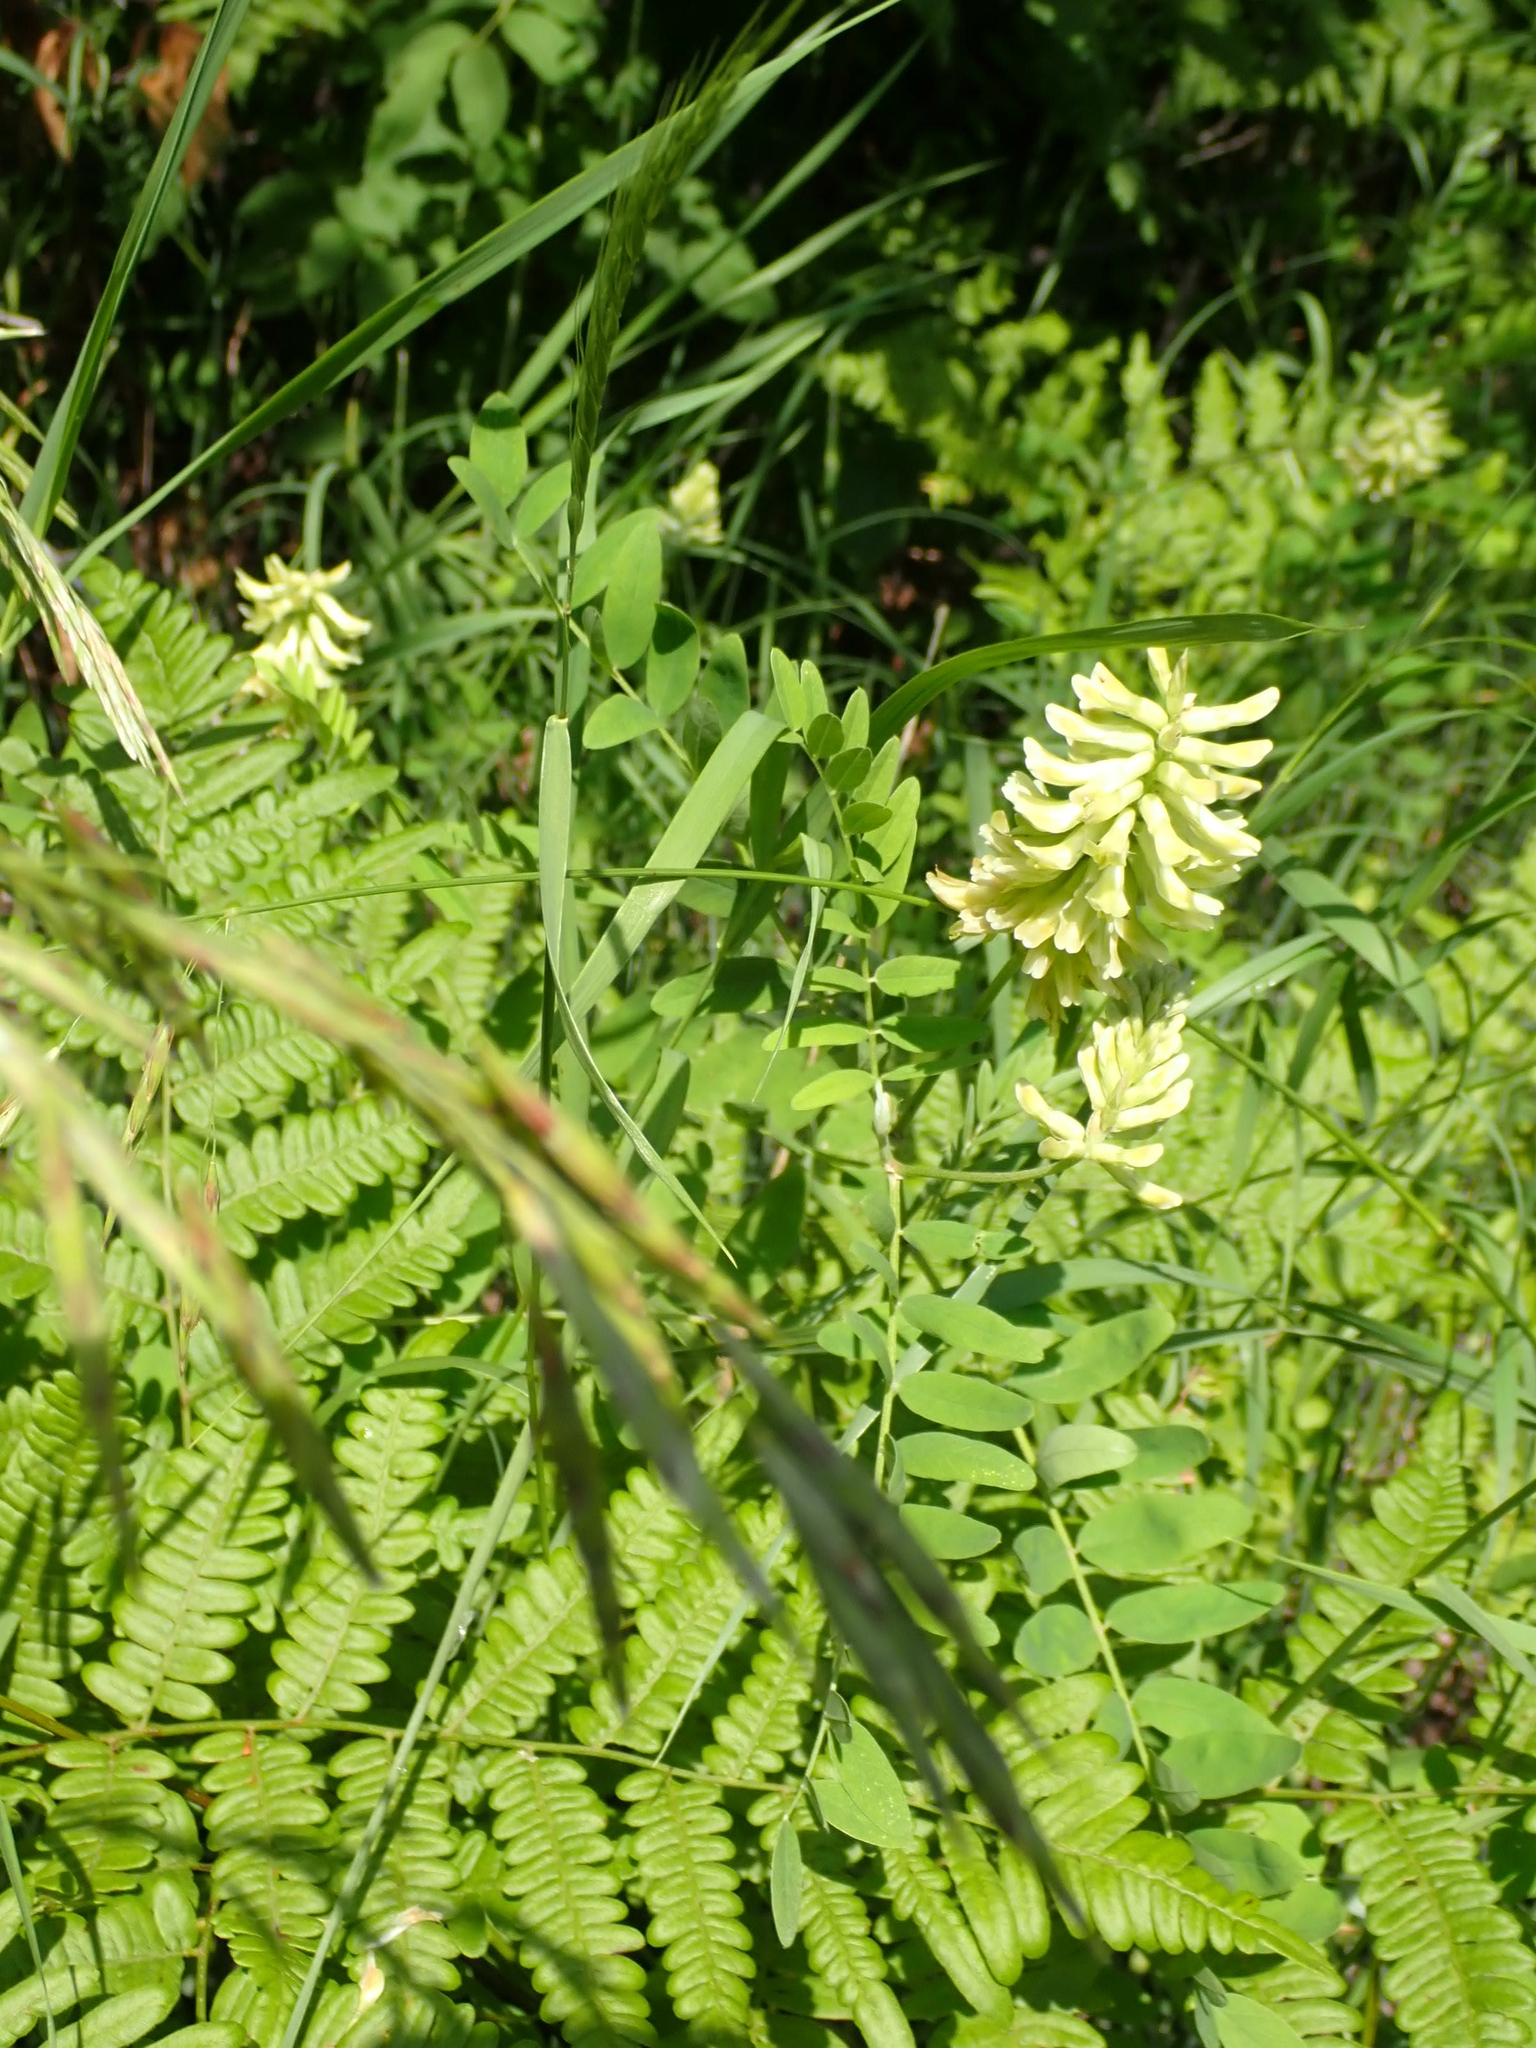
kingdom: Plantae
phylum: Tracheophyta
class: Magnoliopsida
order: Fabales
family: Fabaceae
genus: Astragalus
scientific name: Astragalus canadensis
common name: Canada milk-vetch
